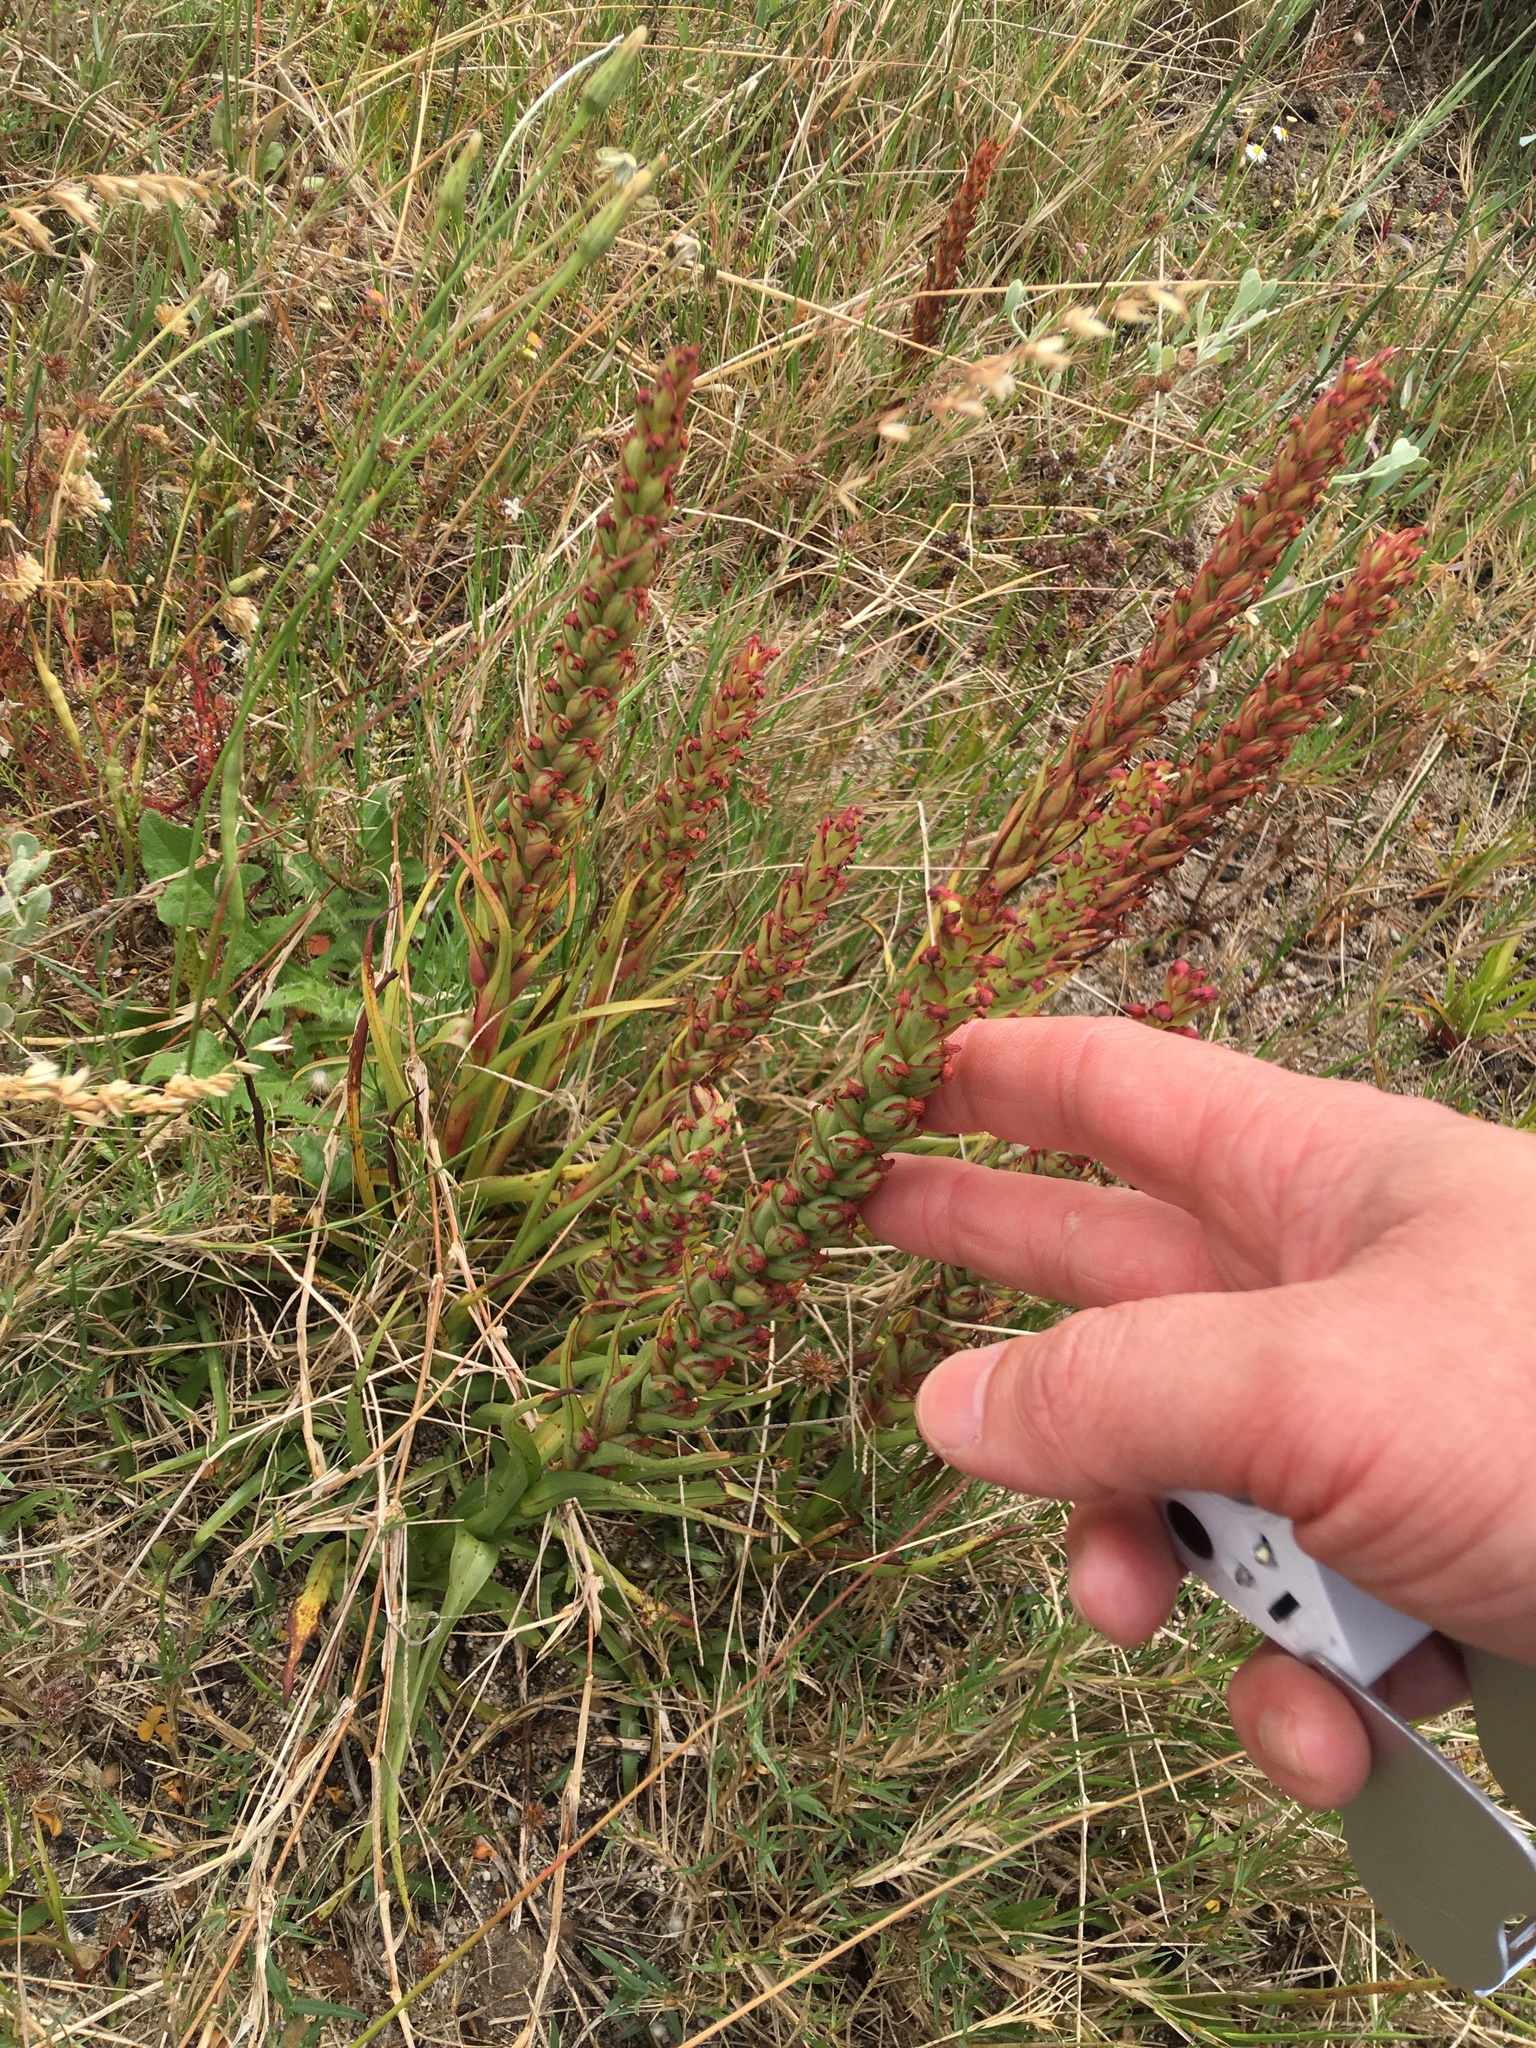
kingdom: Plantae
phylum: Tracheophyta
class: Liliopsida
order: Asparagales
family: Orchidaceae
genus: Disa
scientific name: Disa bracteata
